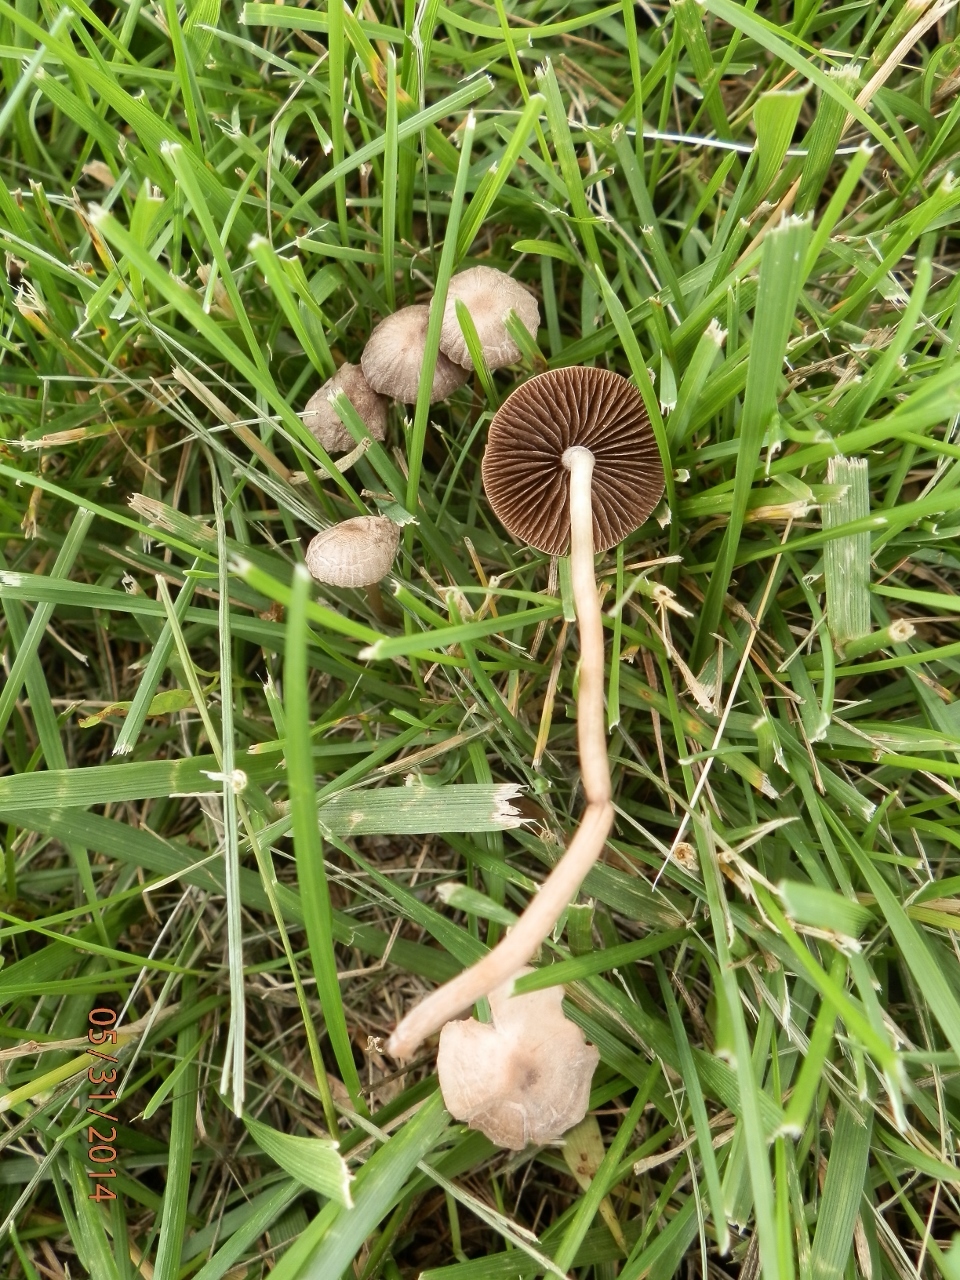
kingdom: Fungi
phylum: Basidiomycota
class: Agaricomycetes
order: Agaricales
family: Bolbitiaceae
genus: Panaeolina
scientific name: Panaeolina foenisecii
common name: Brown hay cap
